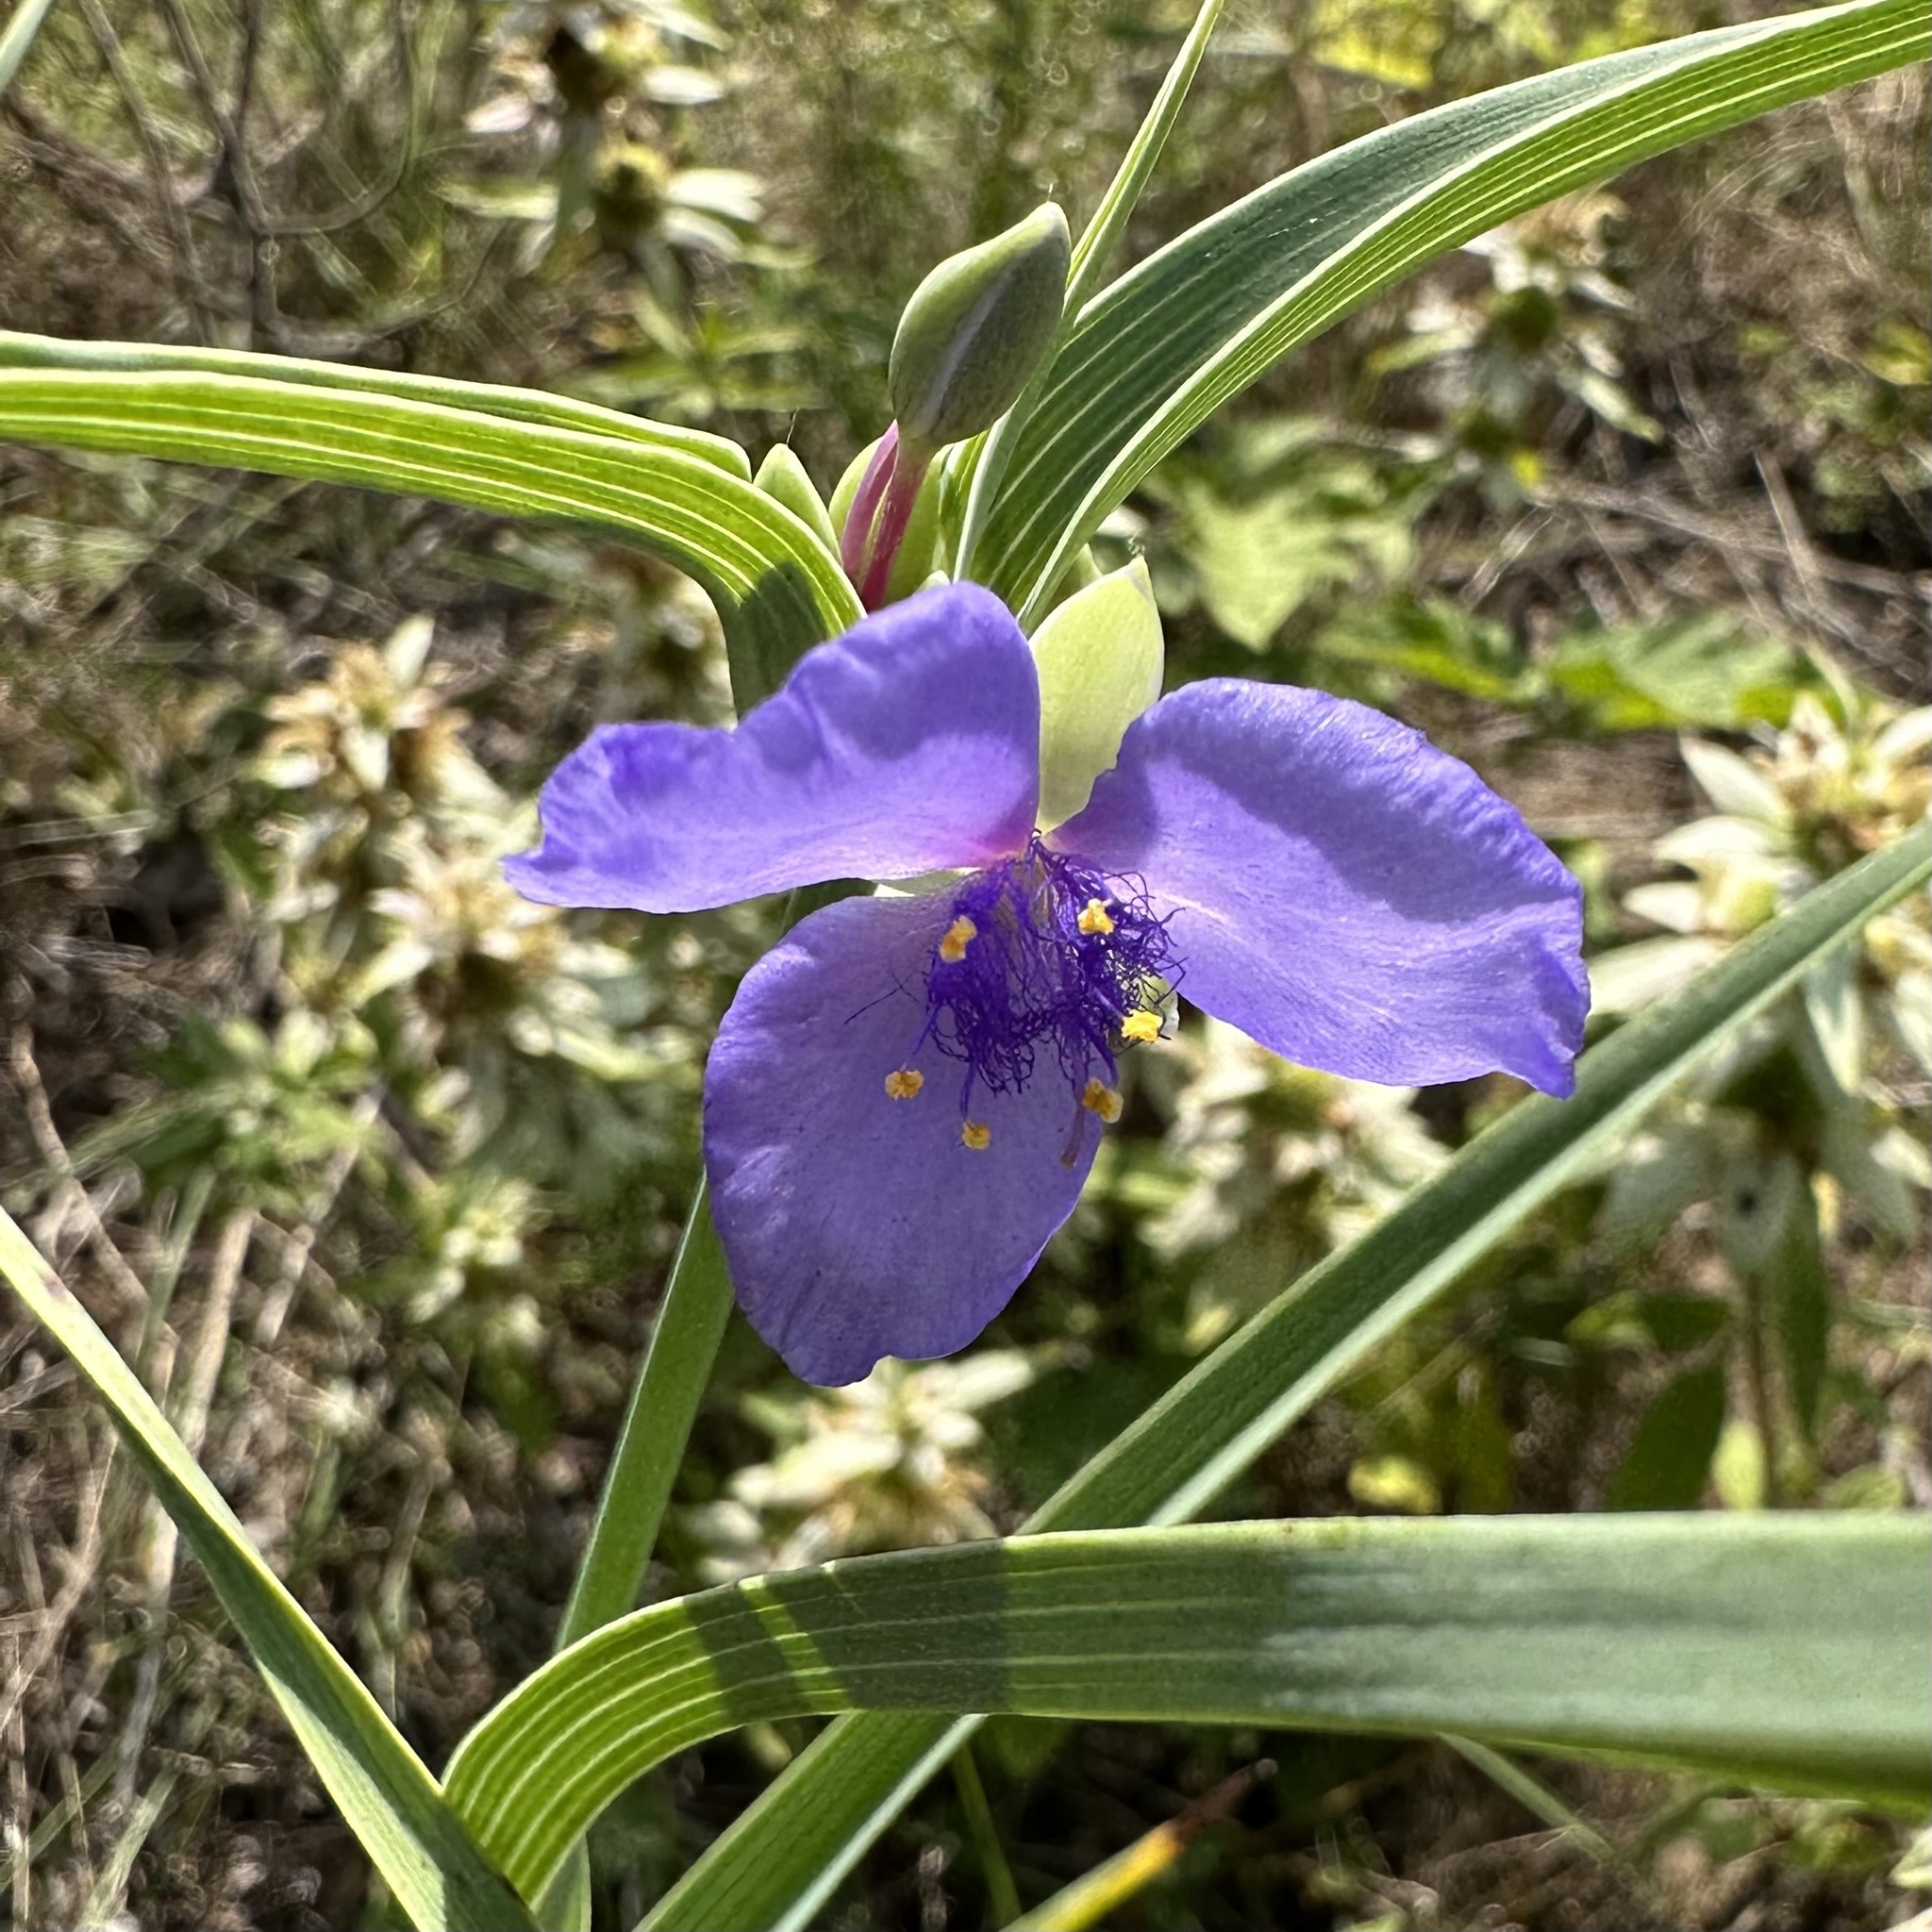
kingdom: Plantae
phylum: Tracheophyta
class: Liliopsida
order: Commelinales
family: Commelinaceae
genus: Tradescantia
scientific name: Tradescantia ohiensis
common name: Ohio spiderwort
